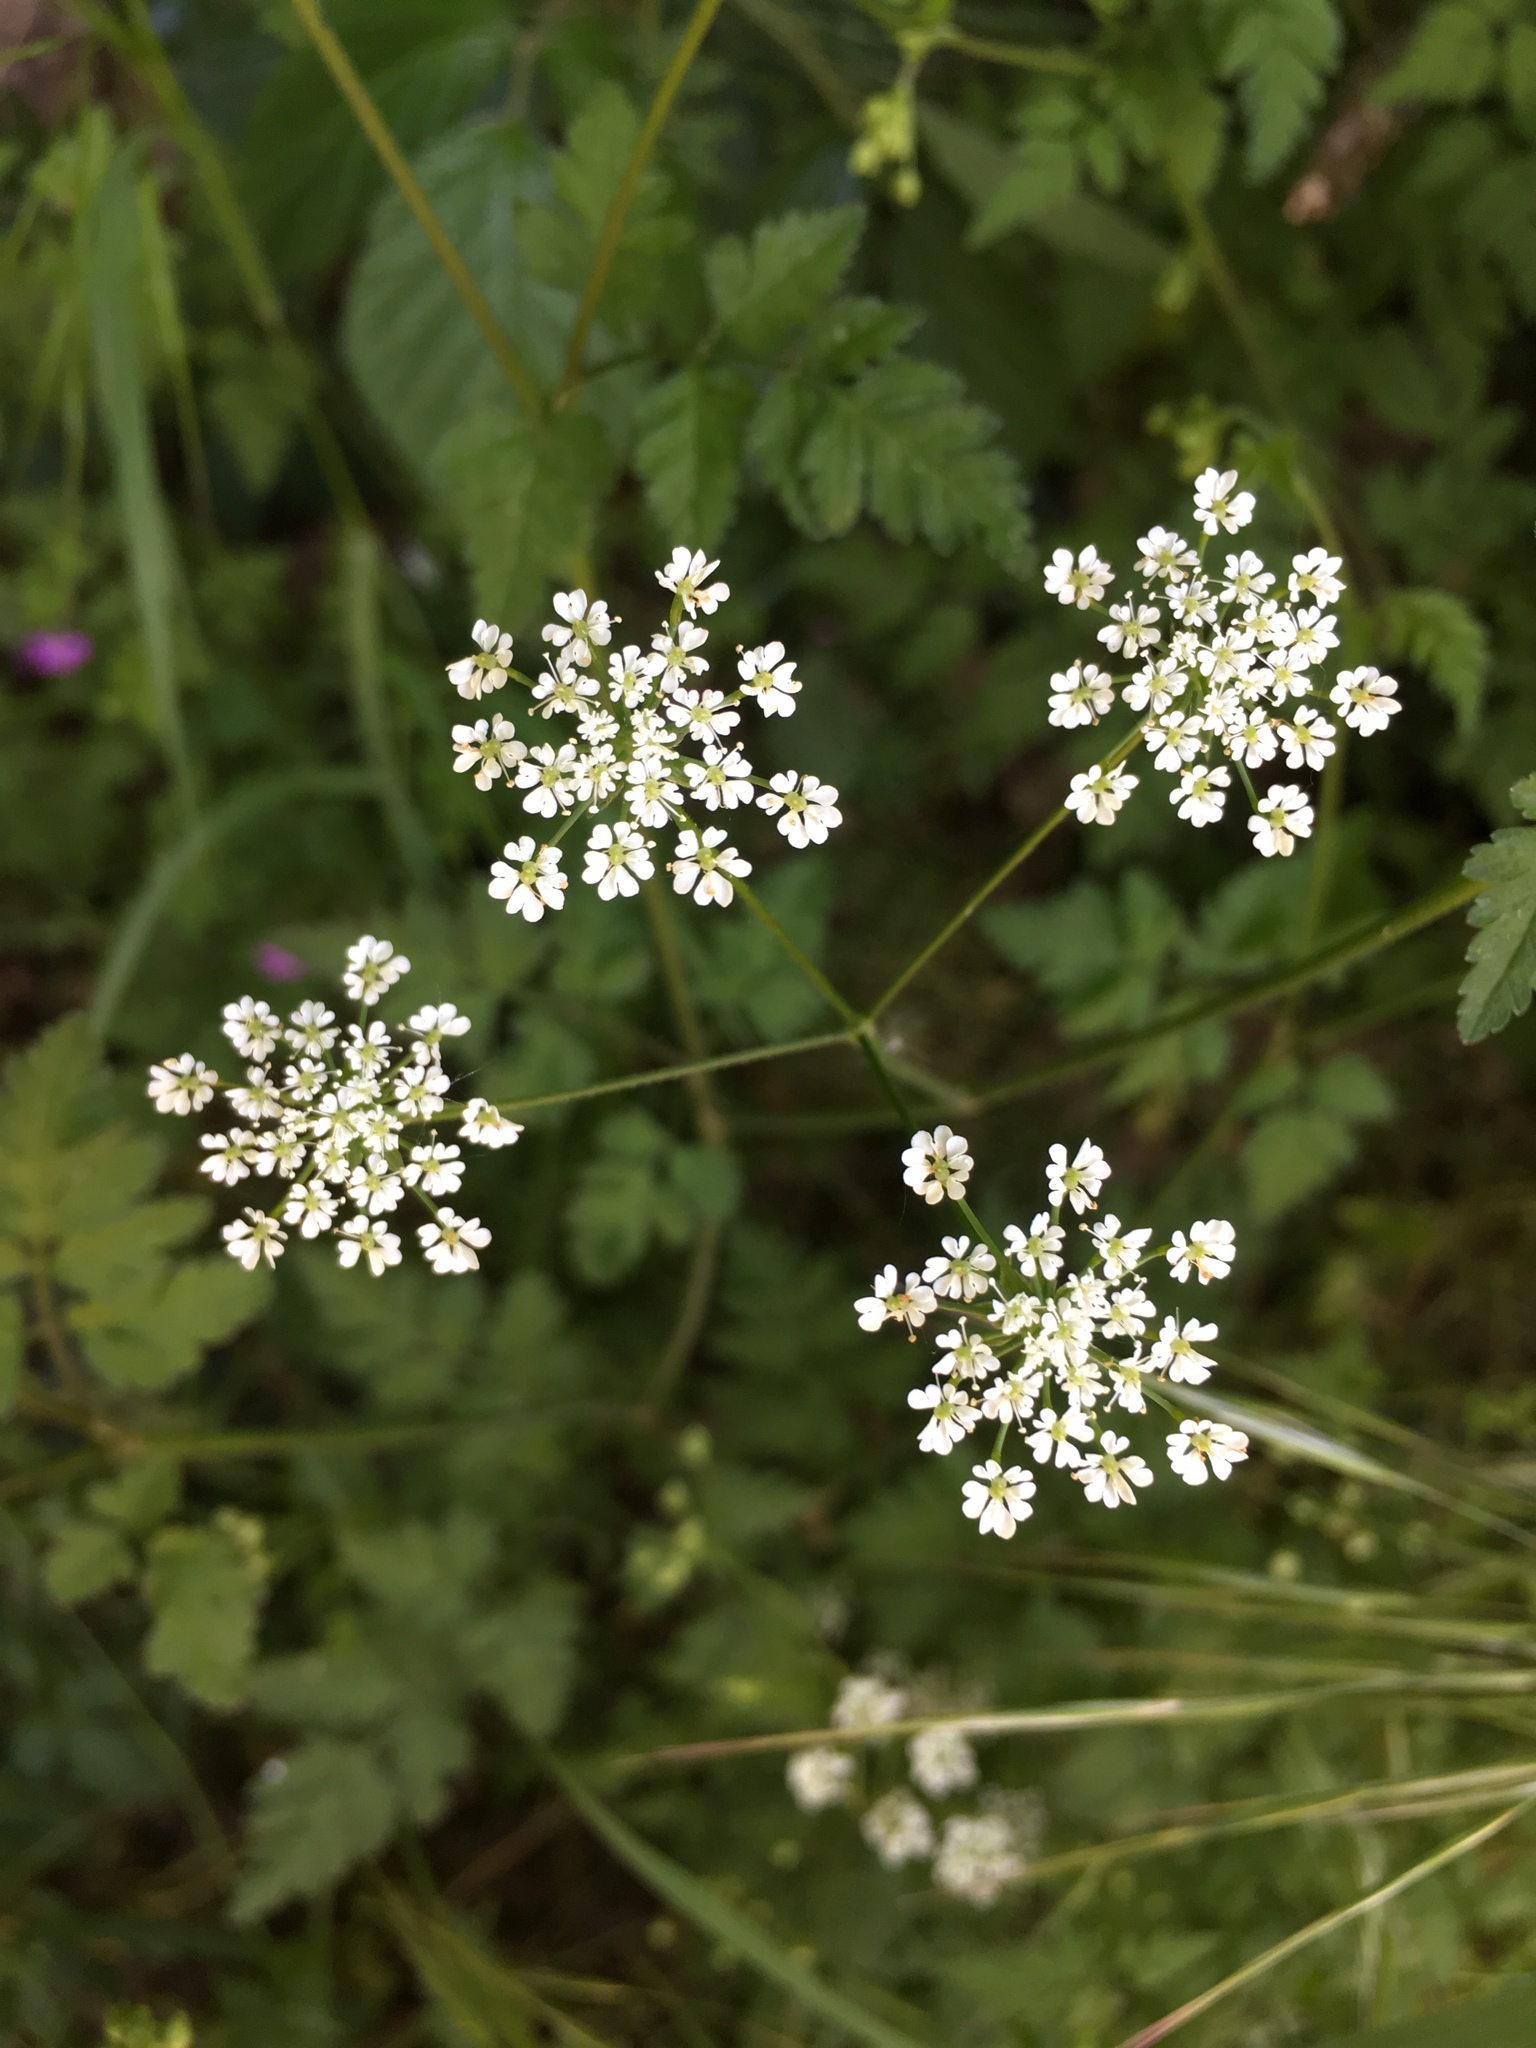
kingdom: Plantae
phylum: Tracheophyta
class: Magnoliopsida
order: Apiales
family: Apiaceae
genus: Chaerophyllum
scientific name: Chaerophyllum temulum
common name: Rough chervil
